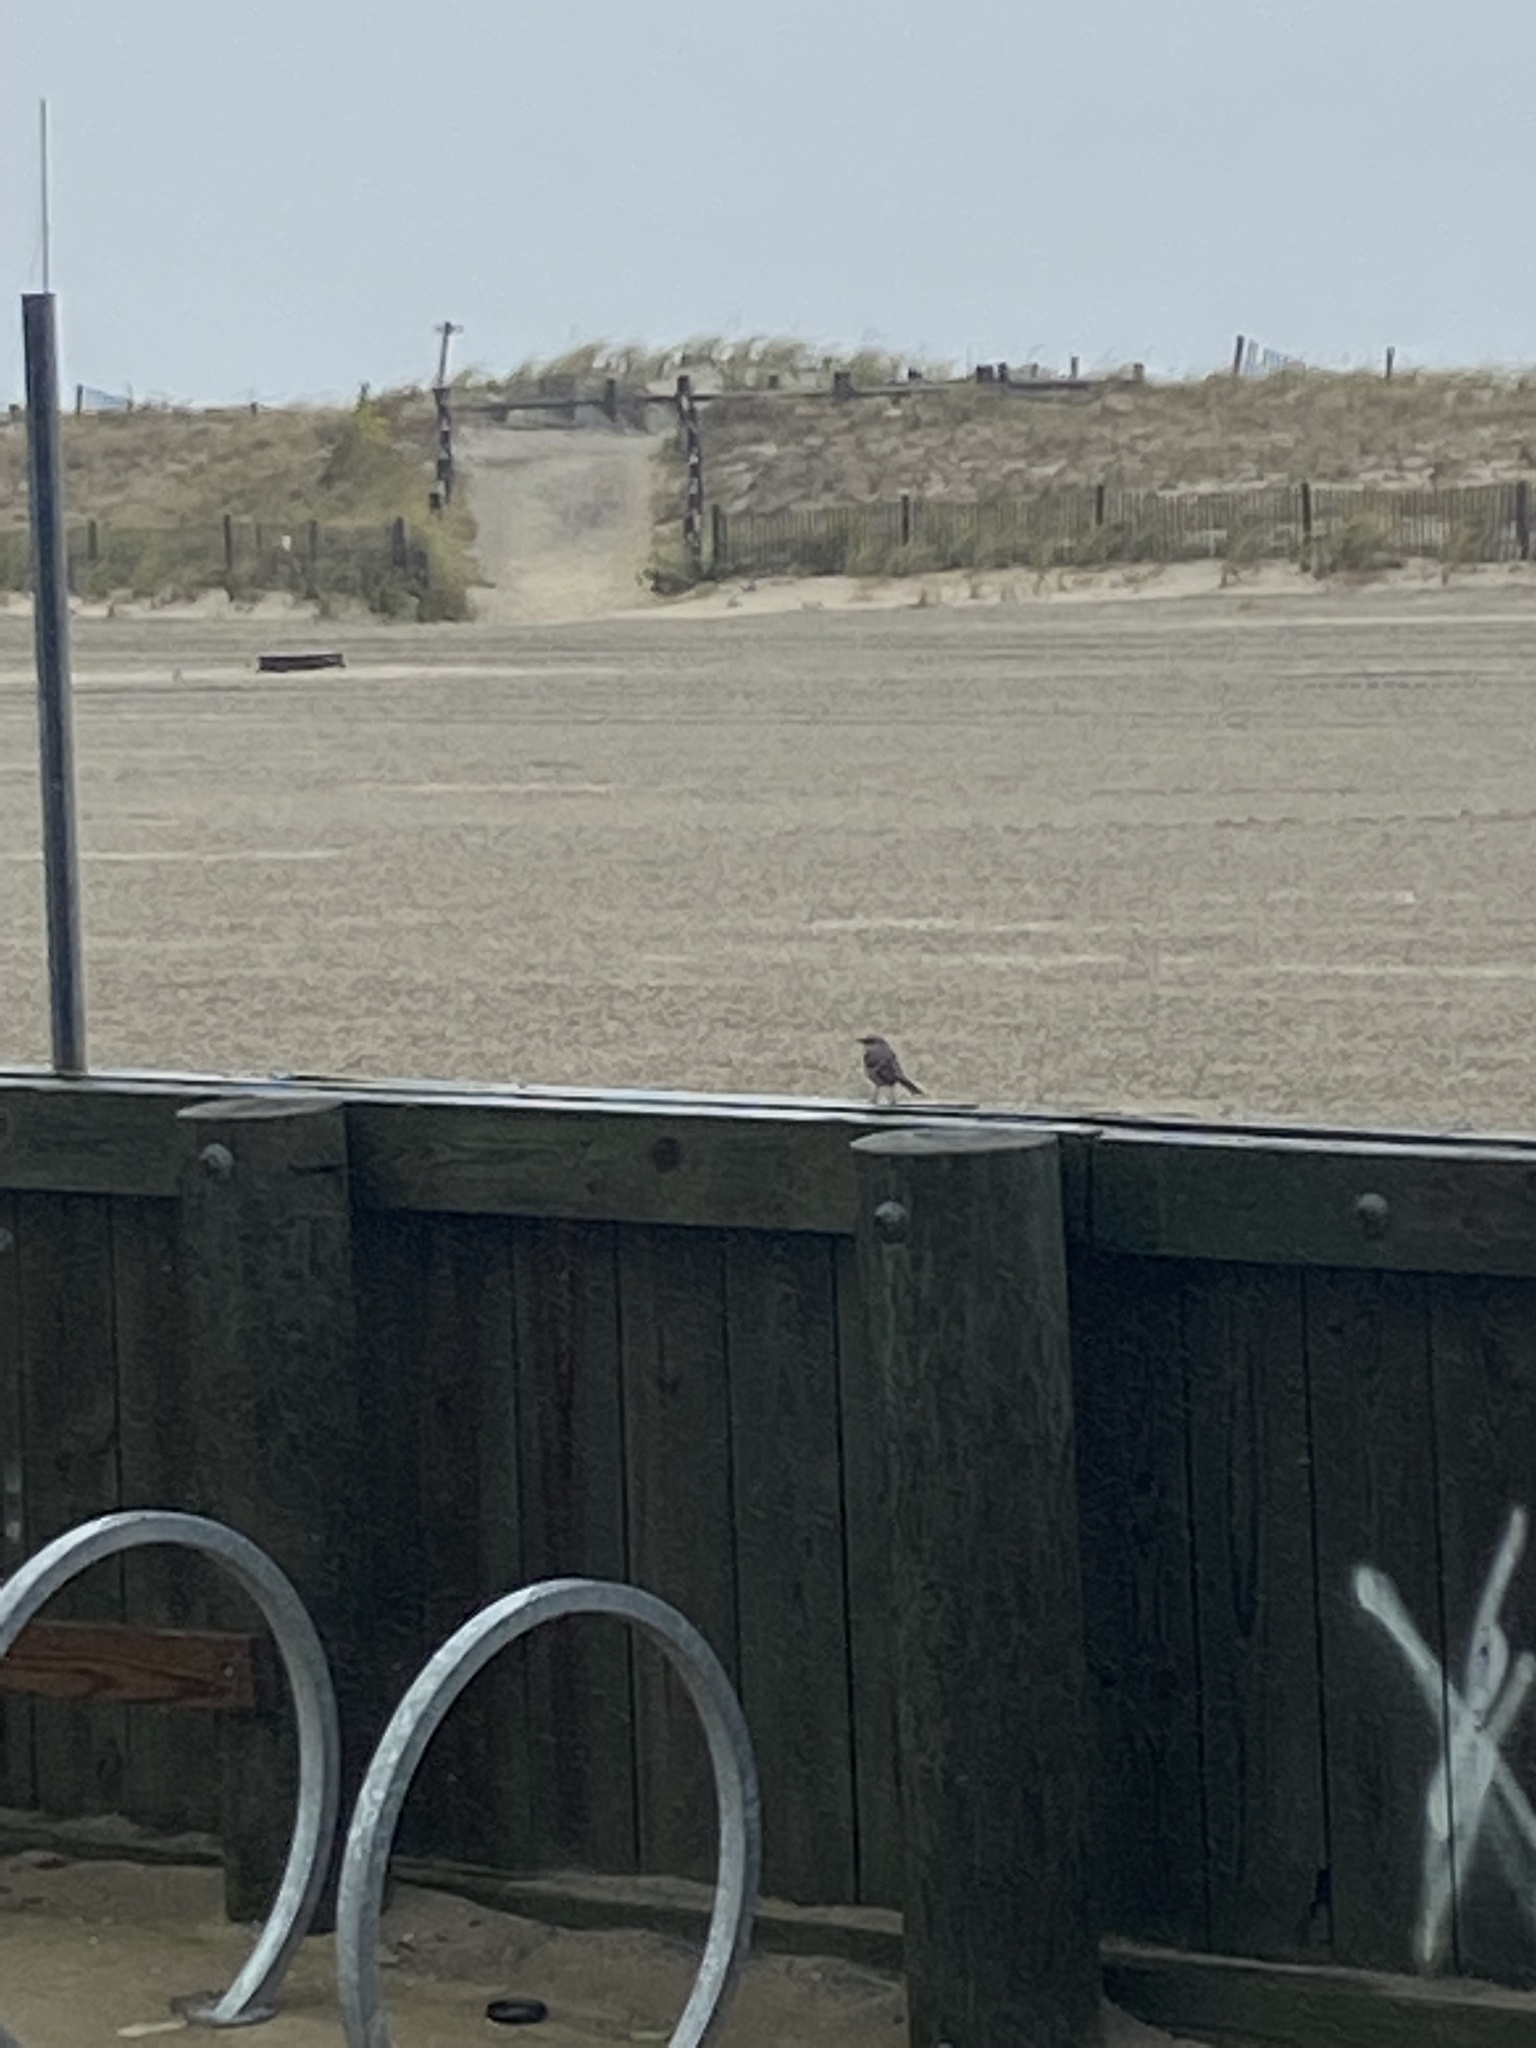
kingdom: Animalia
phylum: Chordata
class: Aves
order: Passeriformes
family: Mimidae
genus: Mimus
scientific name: Mimus polyglottos
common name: Northern mockingbird
